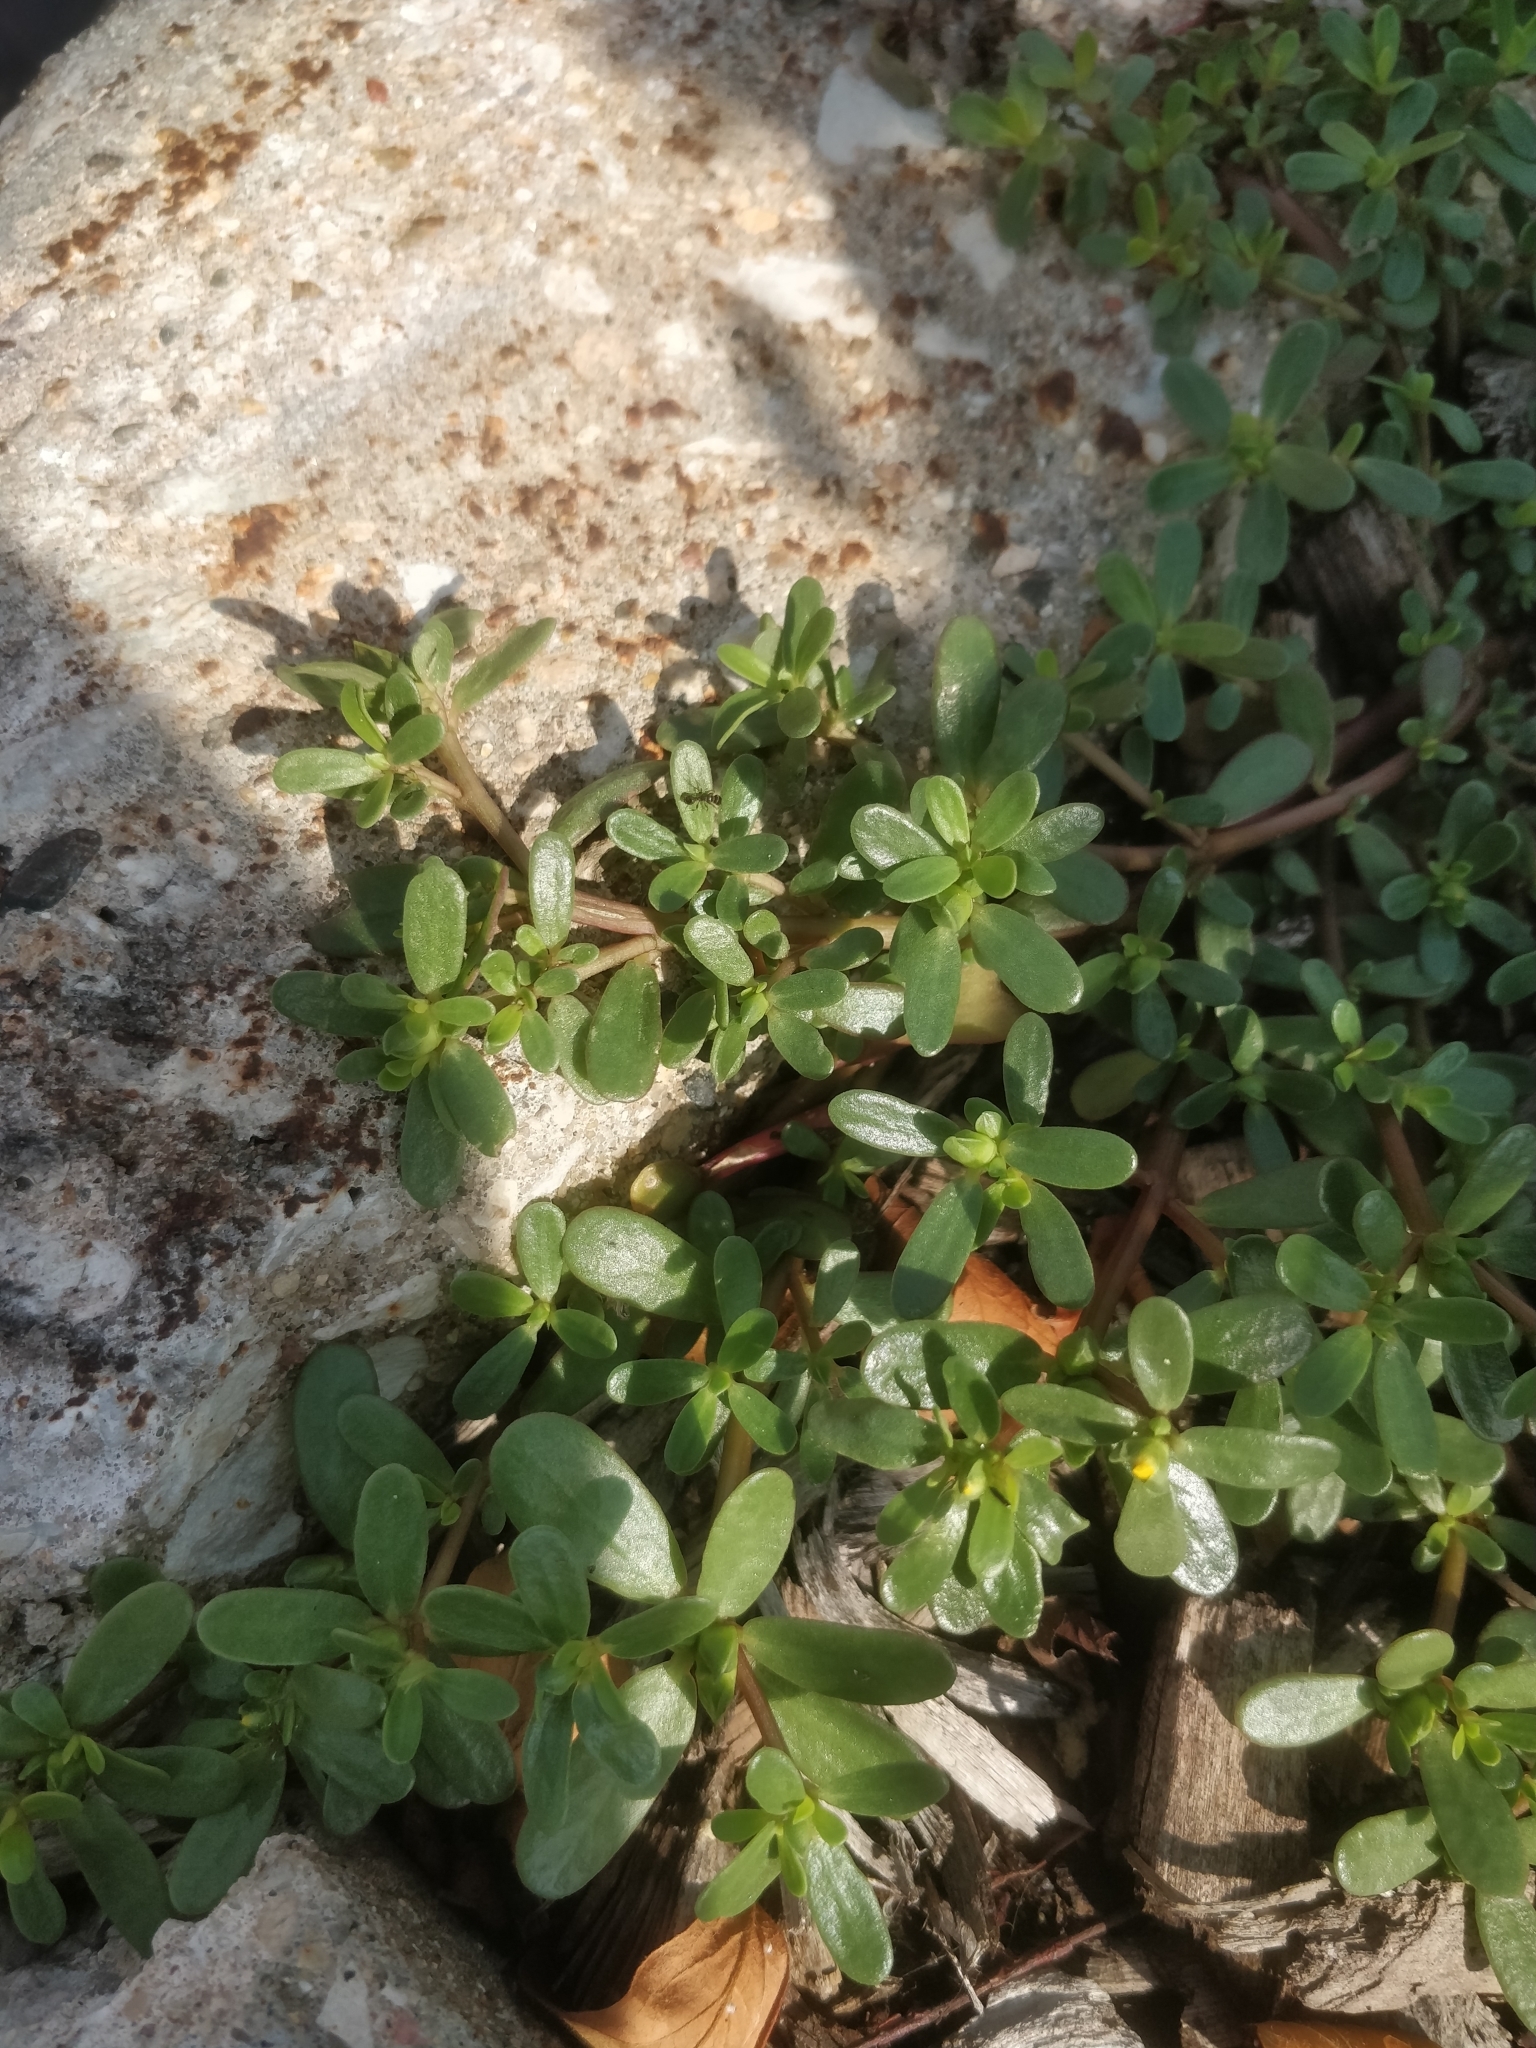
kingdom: Plantae
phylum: Tracheophyta
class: Magnoliopsida
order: Caryophyllales
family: Portulacaceae
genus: Portulaca
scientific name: Portulaca oleracea
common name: Common purslane
